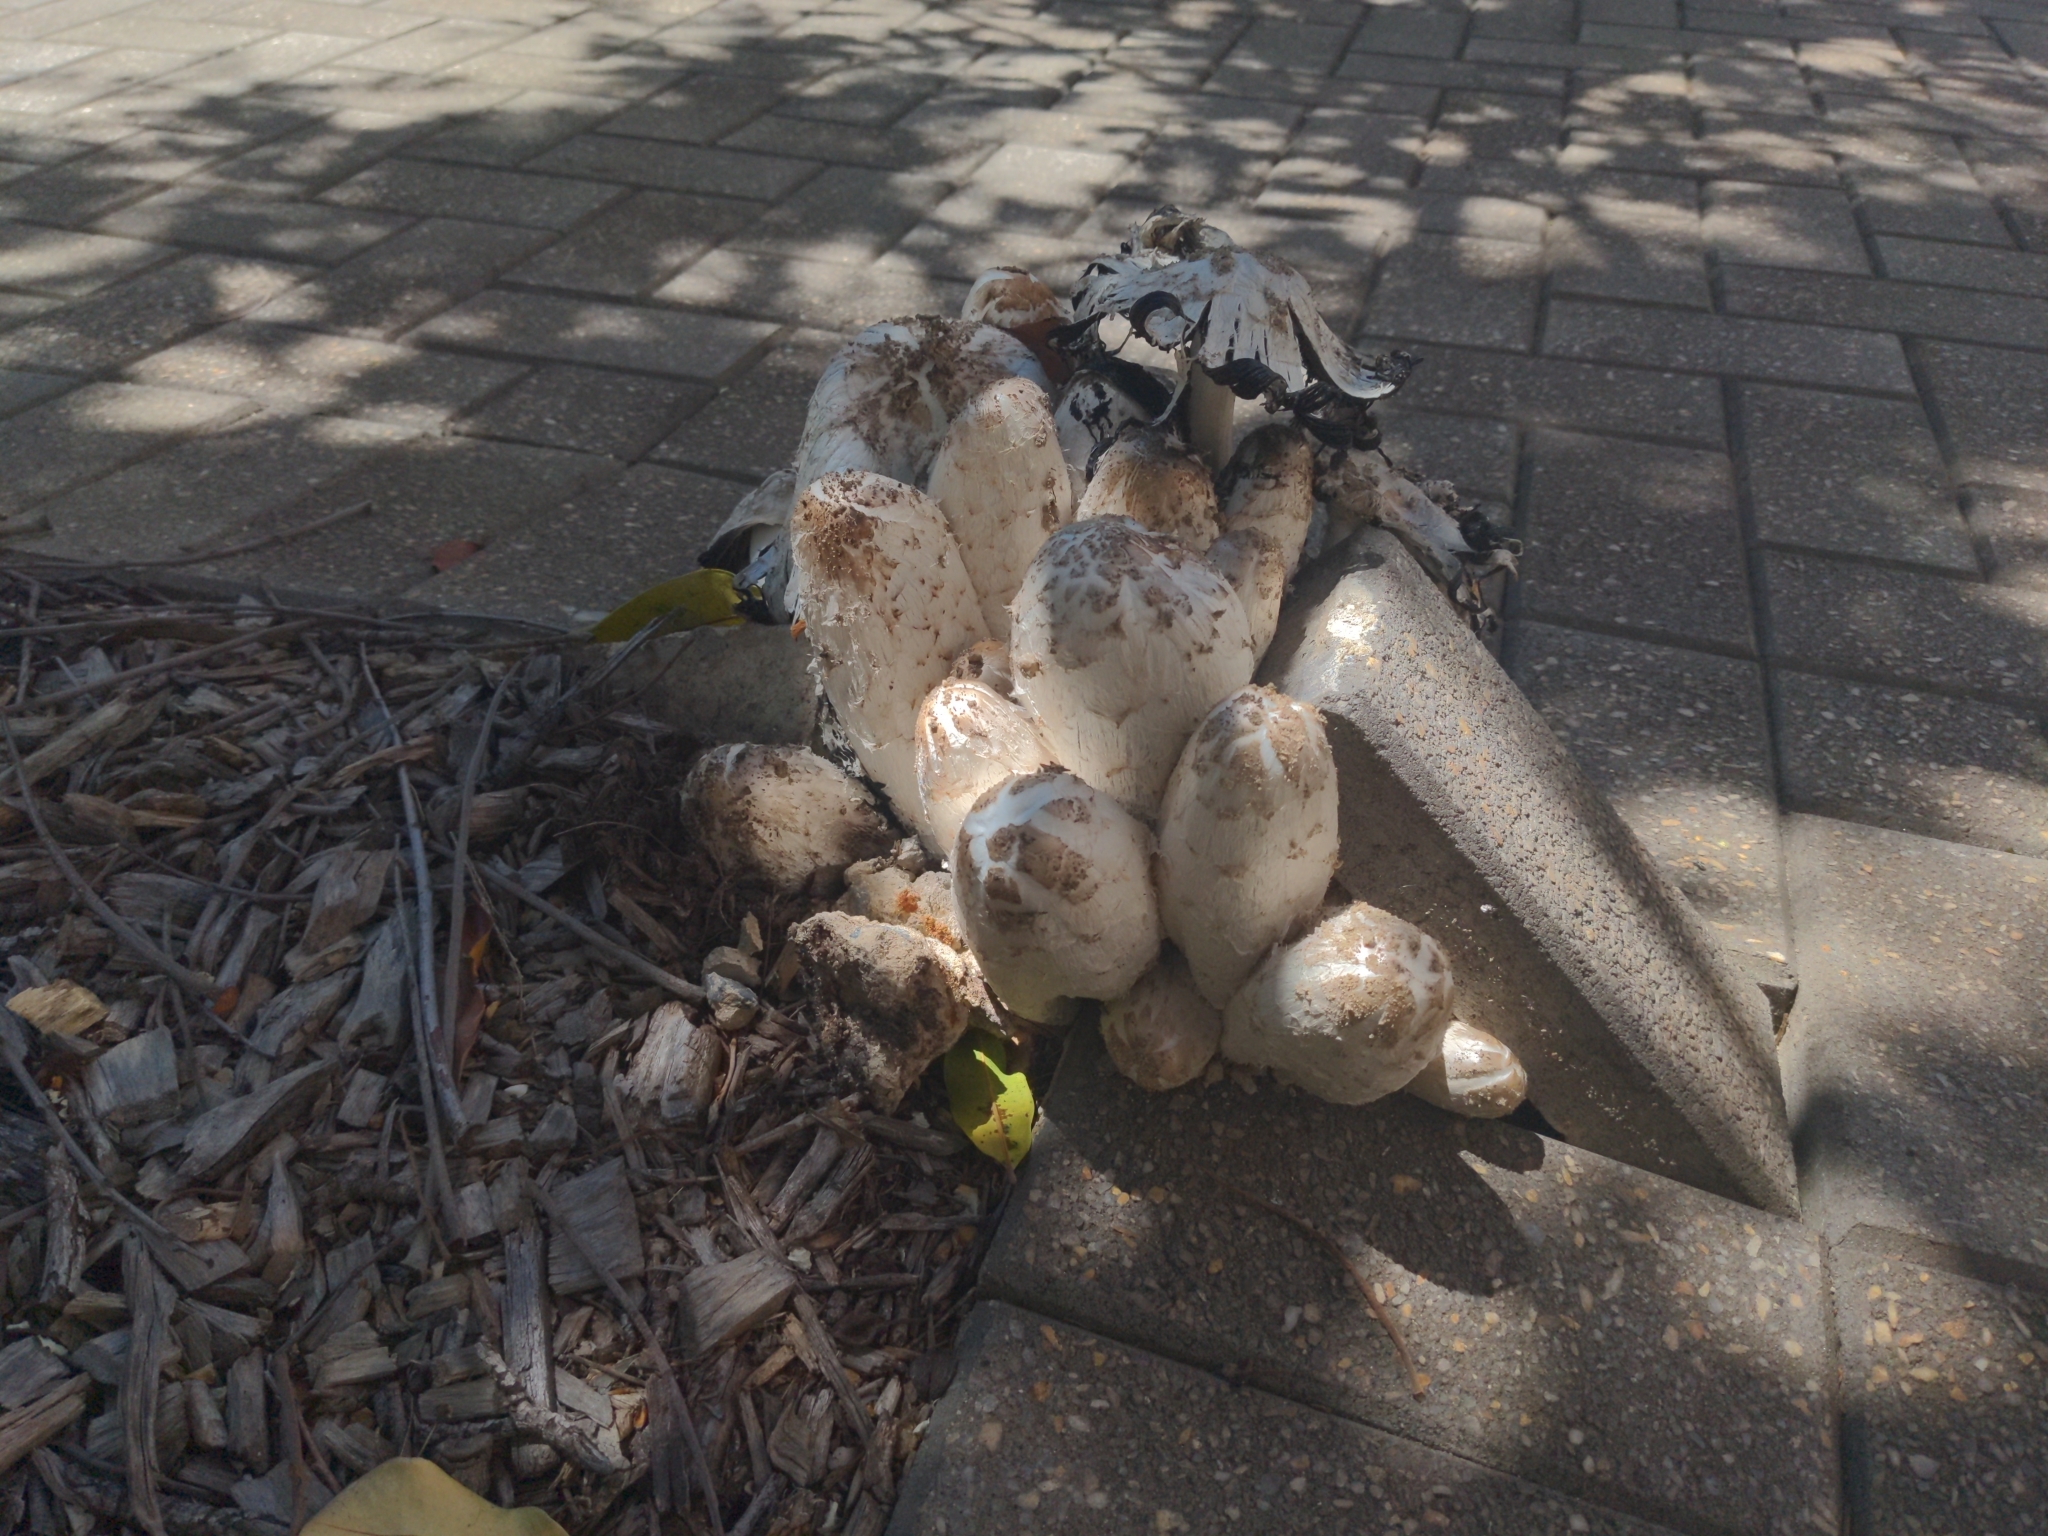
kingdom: Fungi
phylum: Basidiomycota
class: Agaricomycetes
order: Agaricales
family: Agaricaceae
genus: Coprinus
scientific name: Coprinus comatus
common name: Lawyer's wig
